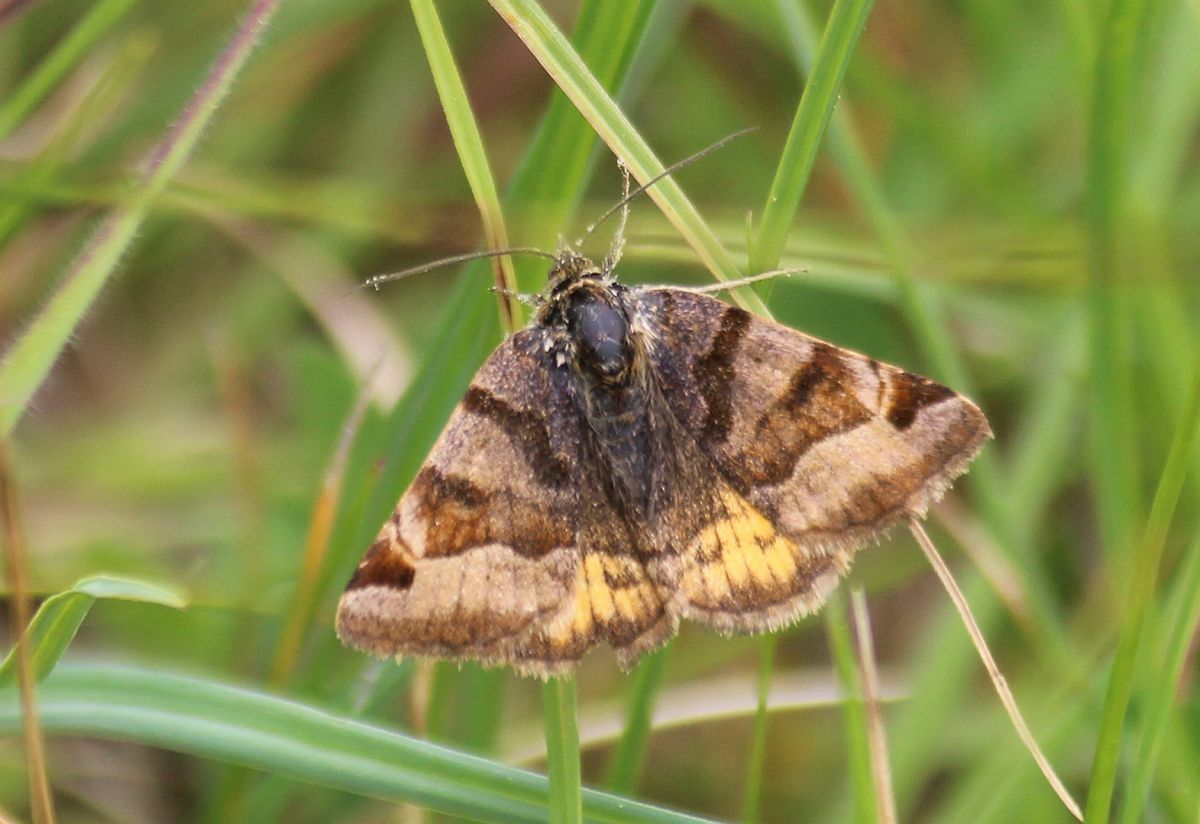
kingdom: Animalia
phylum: Arthropoda
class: Insecta
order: Lepidoptera
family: Erebidae
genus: Euclidia
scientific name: Euclidia glyphica
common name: Burnet companion
